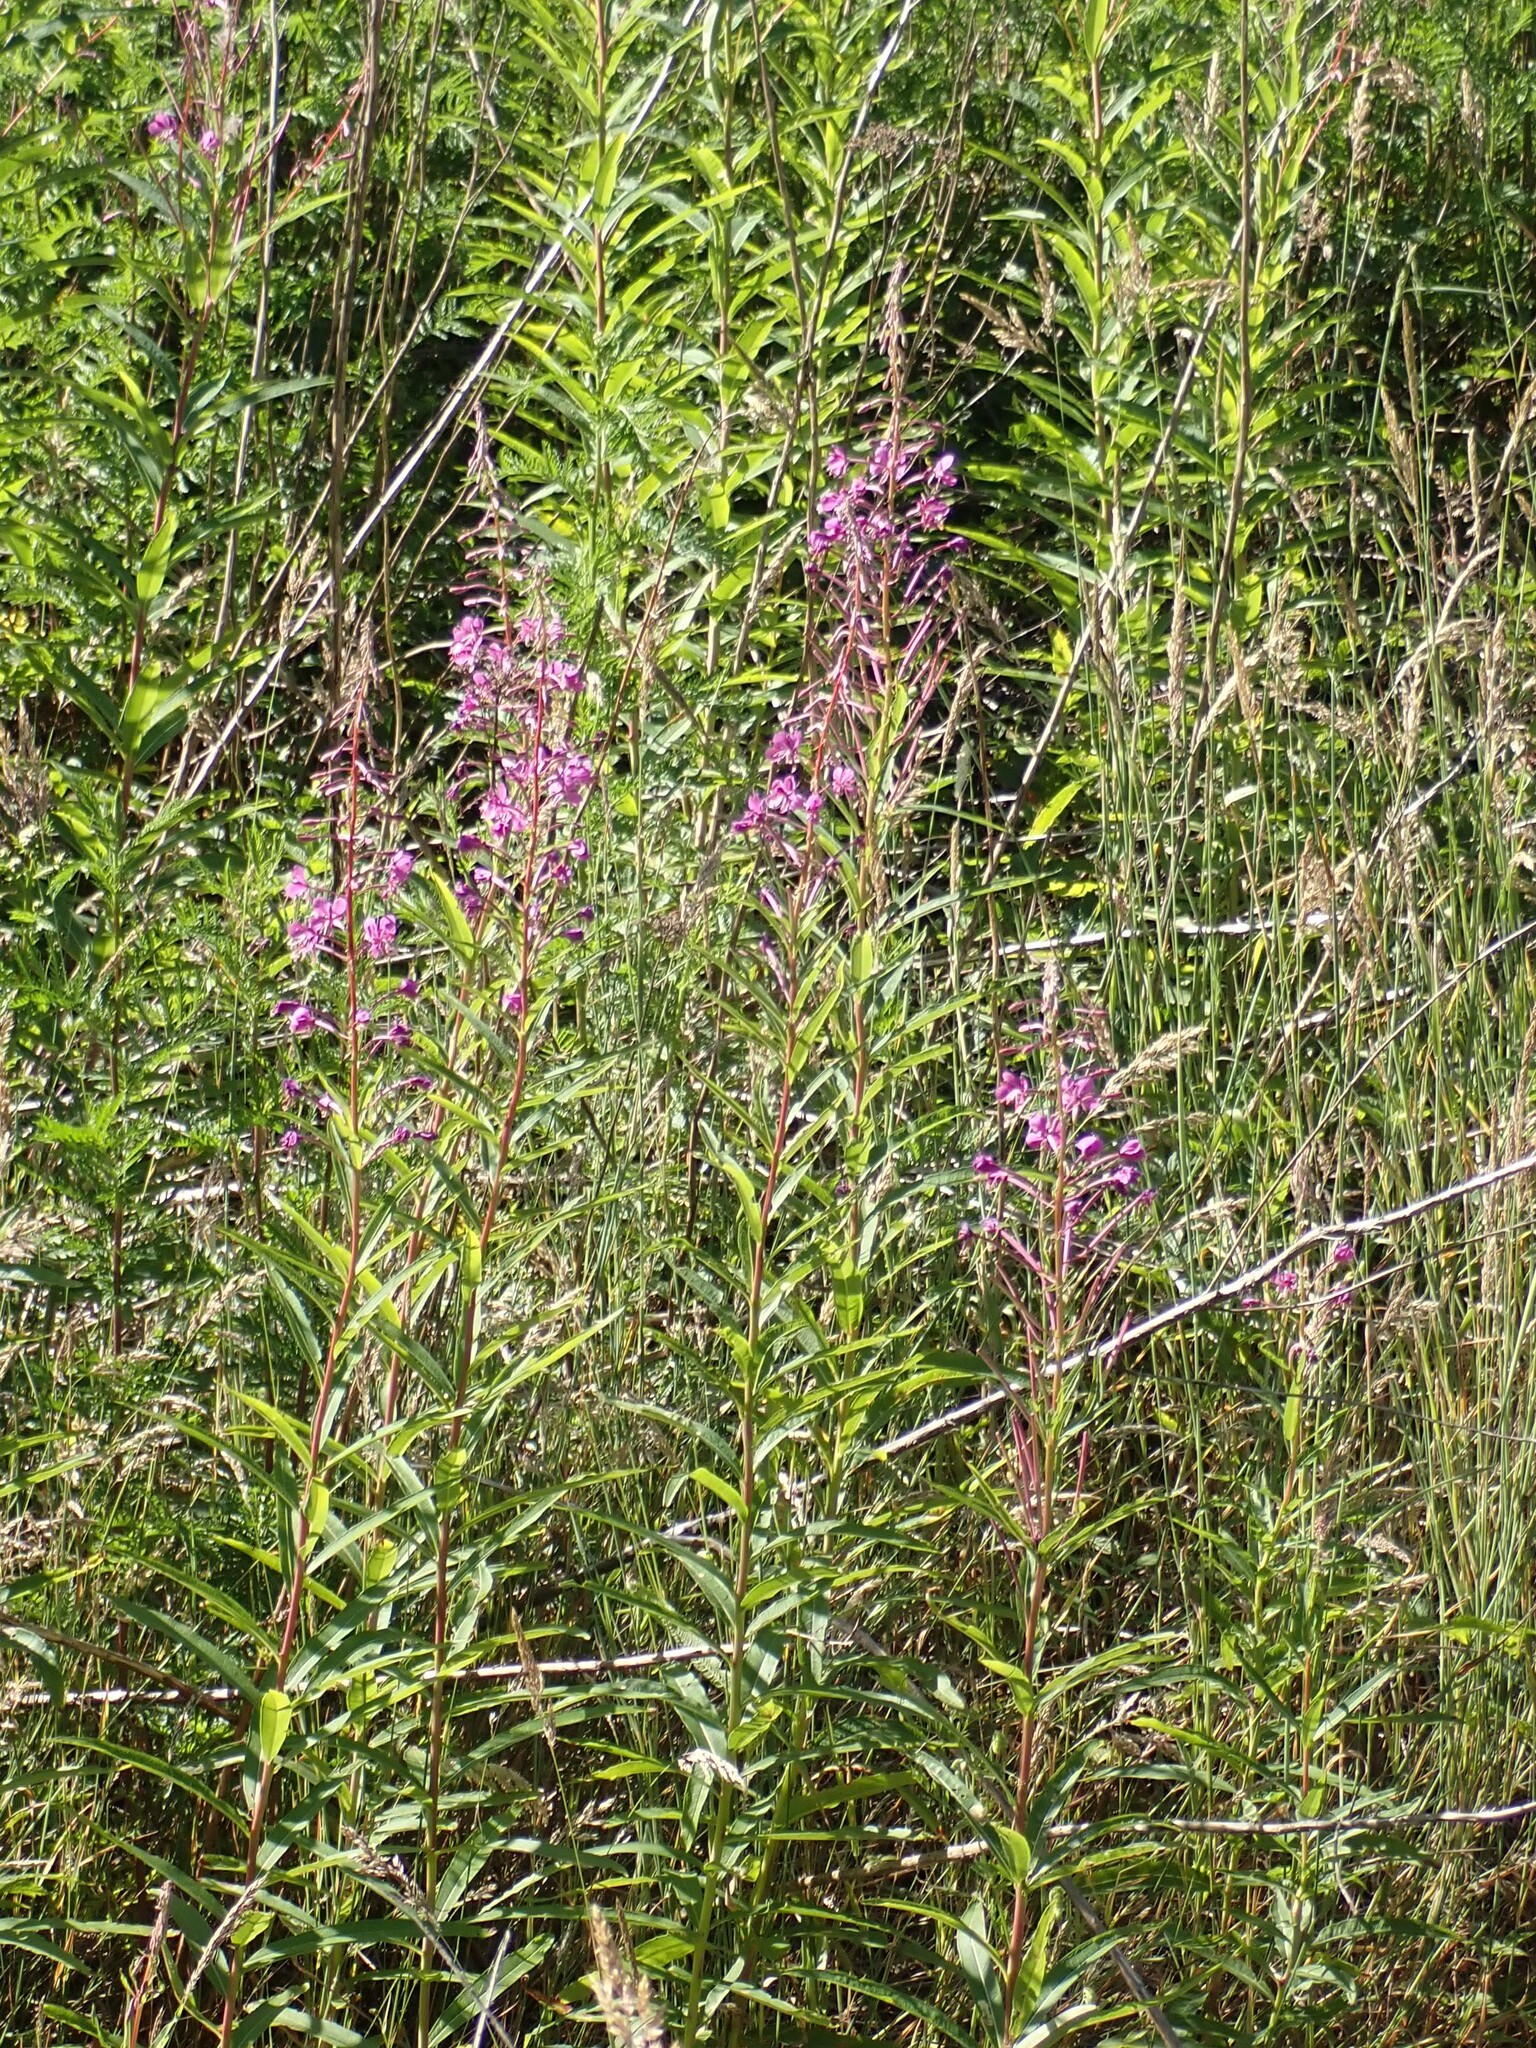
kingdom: Plantae
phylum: Tracheophyta
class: Magnoliopsida
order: Myrtales
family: Onagraceae
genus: Chamaenerion
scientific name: Chamaenerion angustifolium
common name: Fireweed
